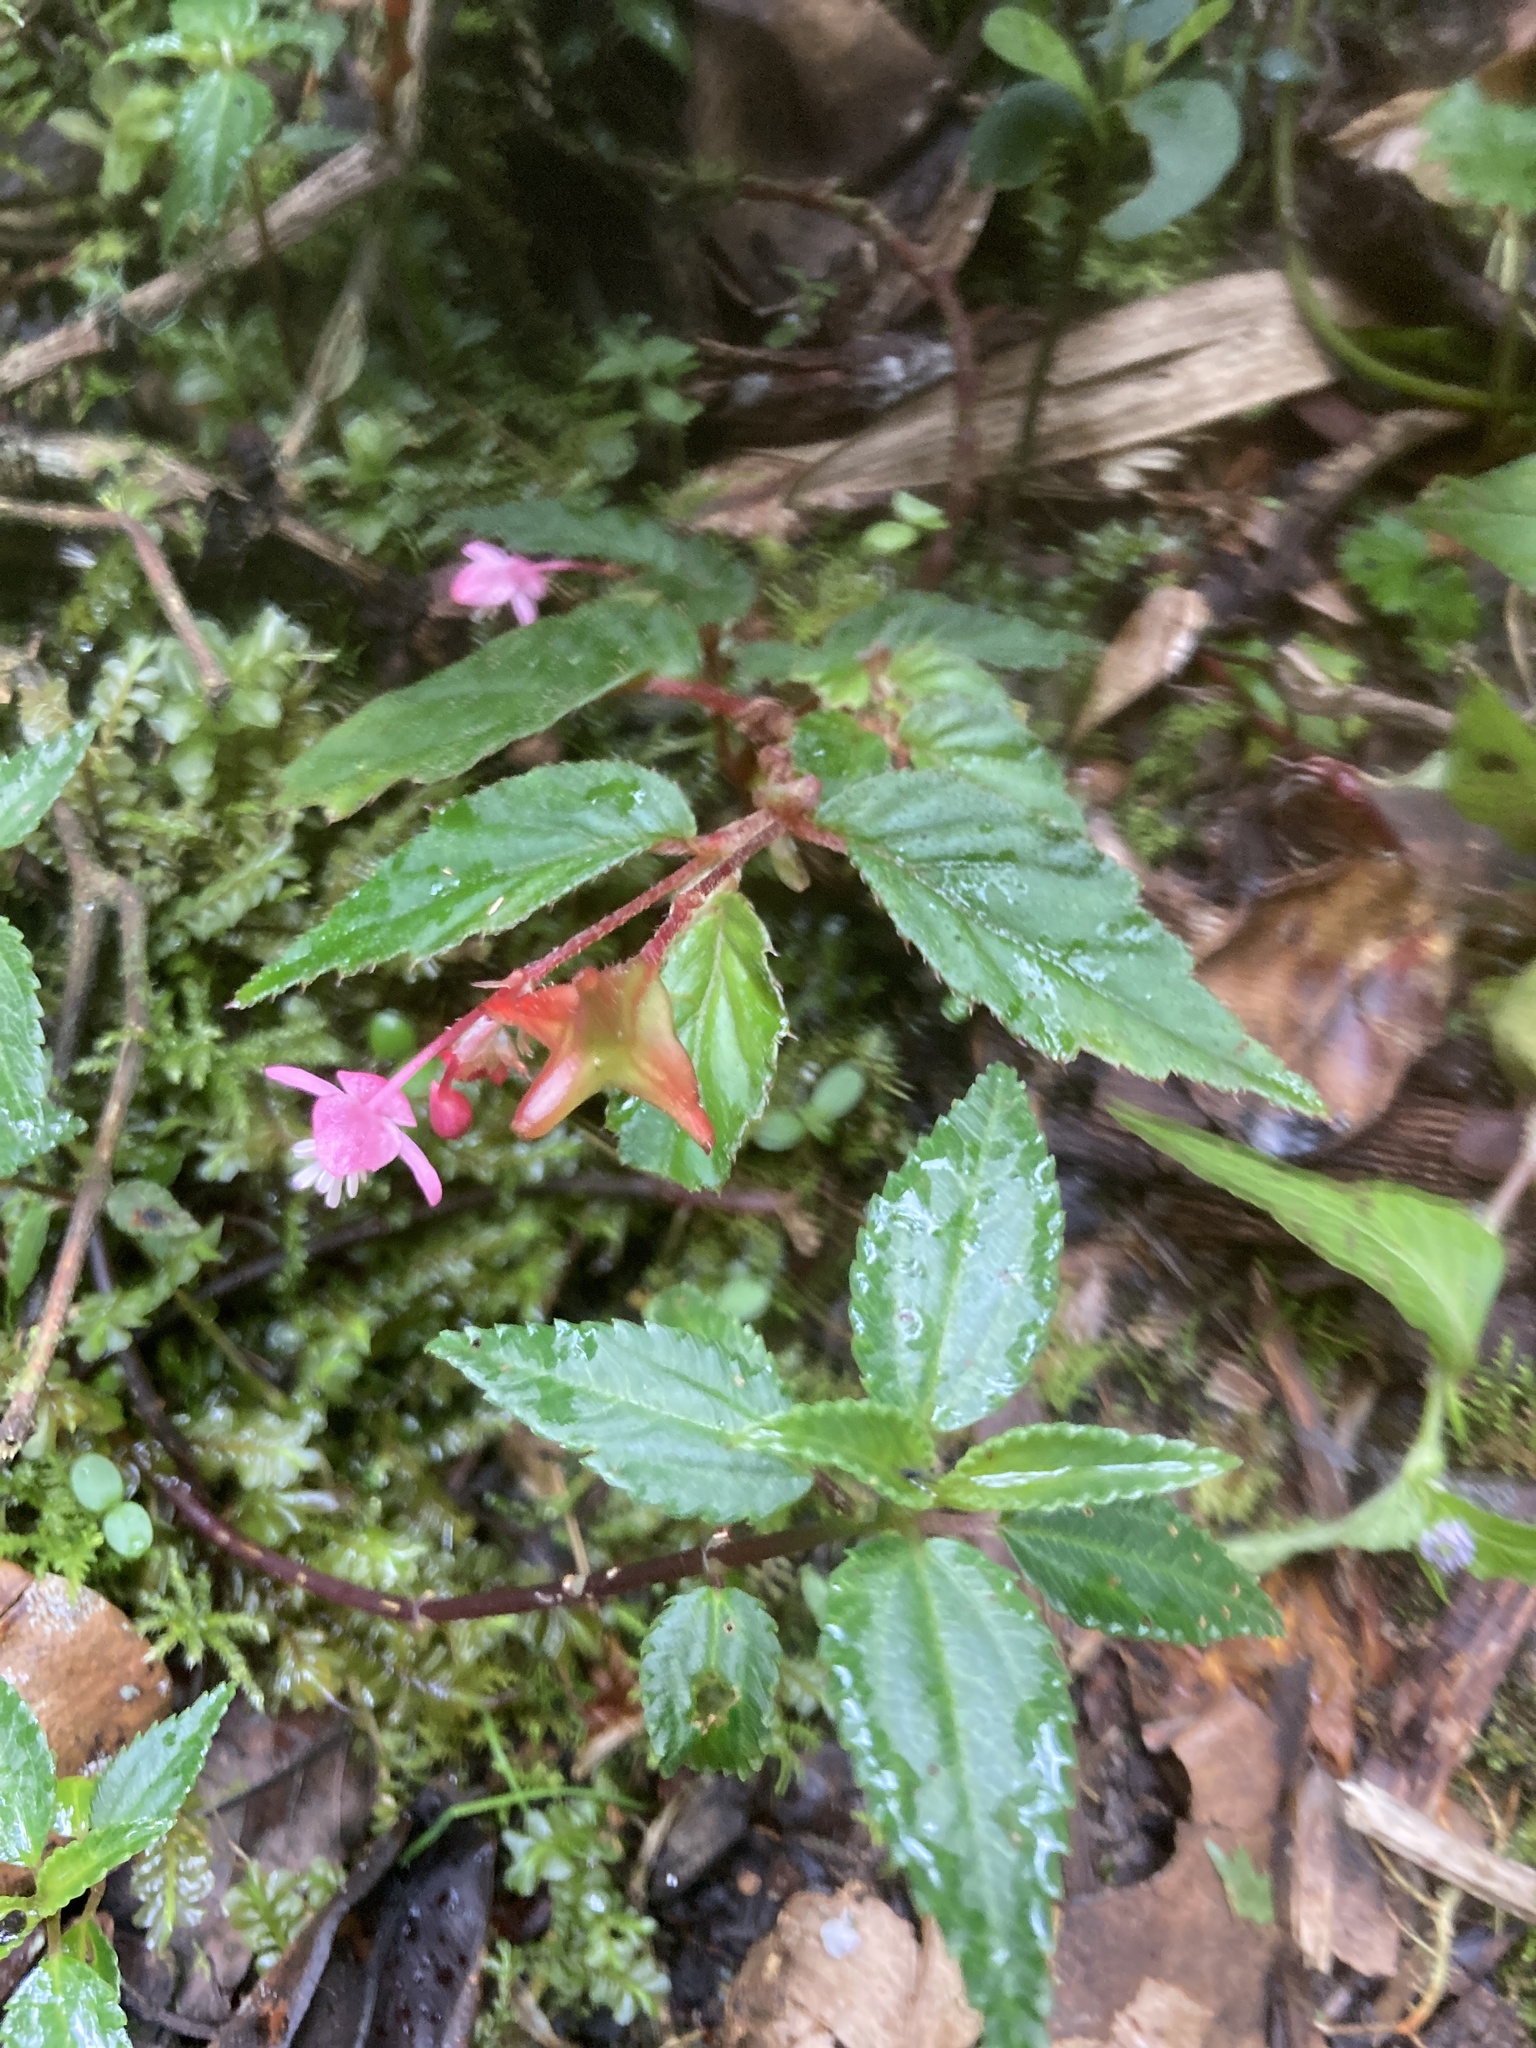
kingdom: Plantae
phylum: Tracheophyta
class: Magnoliopsida
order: Cucurbitales
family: Begoniaceae
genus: Begonia
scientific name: Begonia urticae
